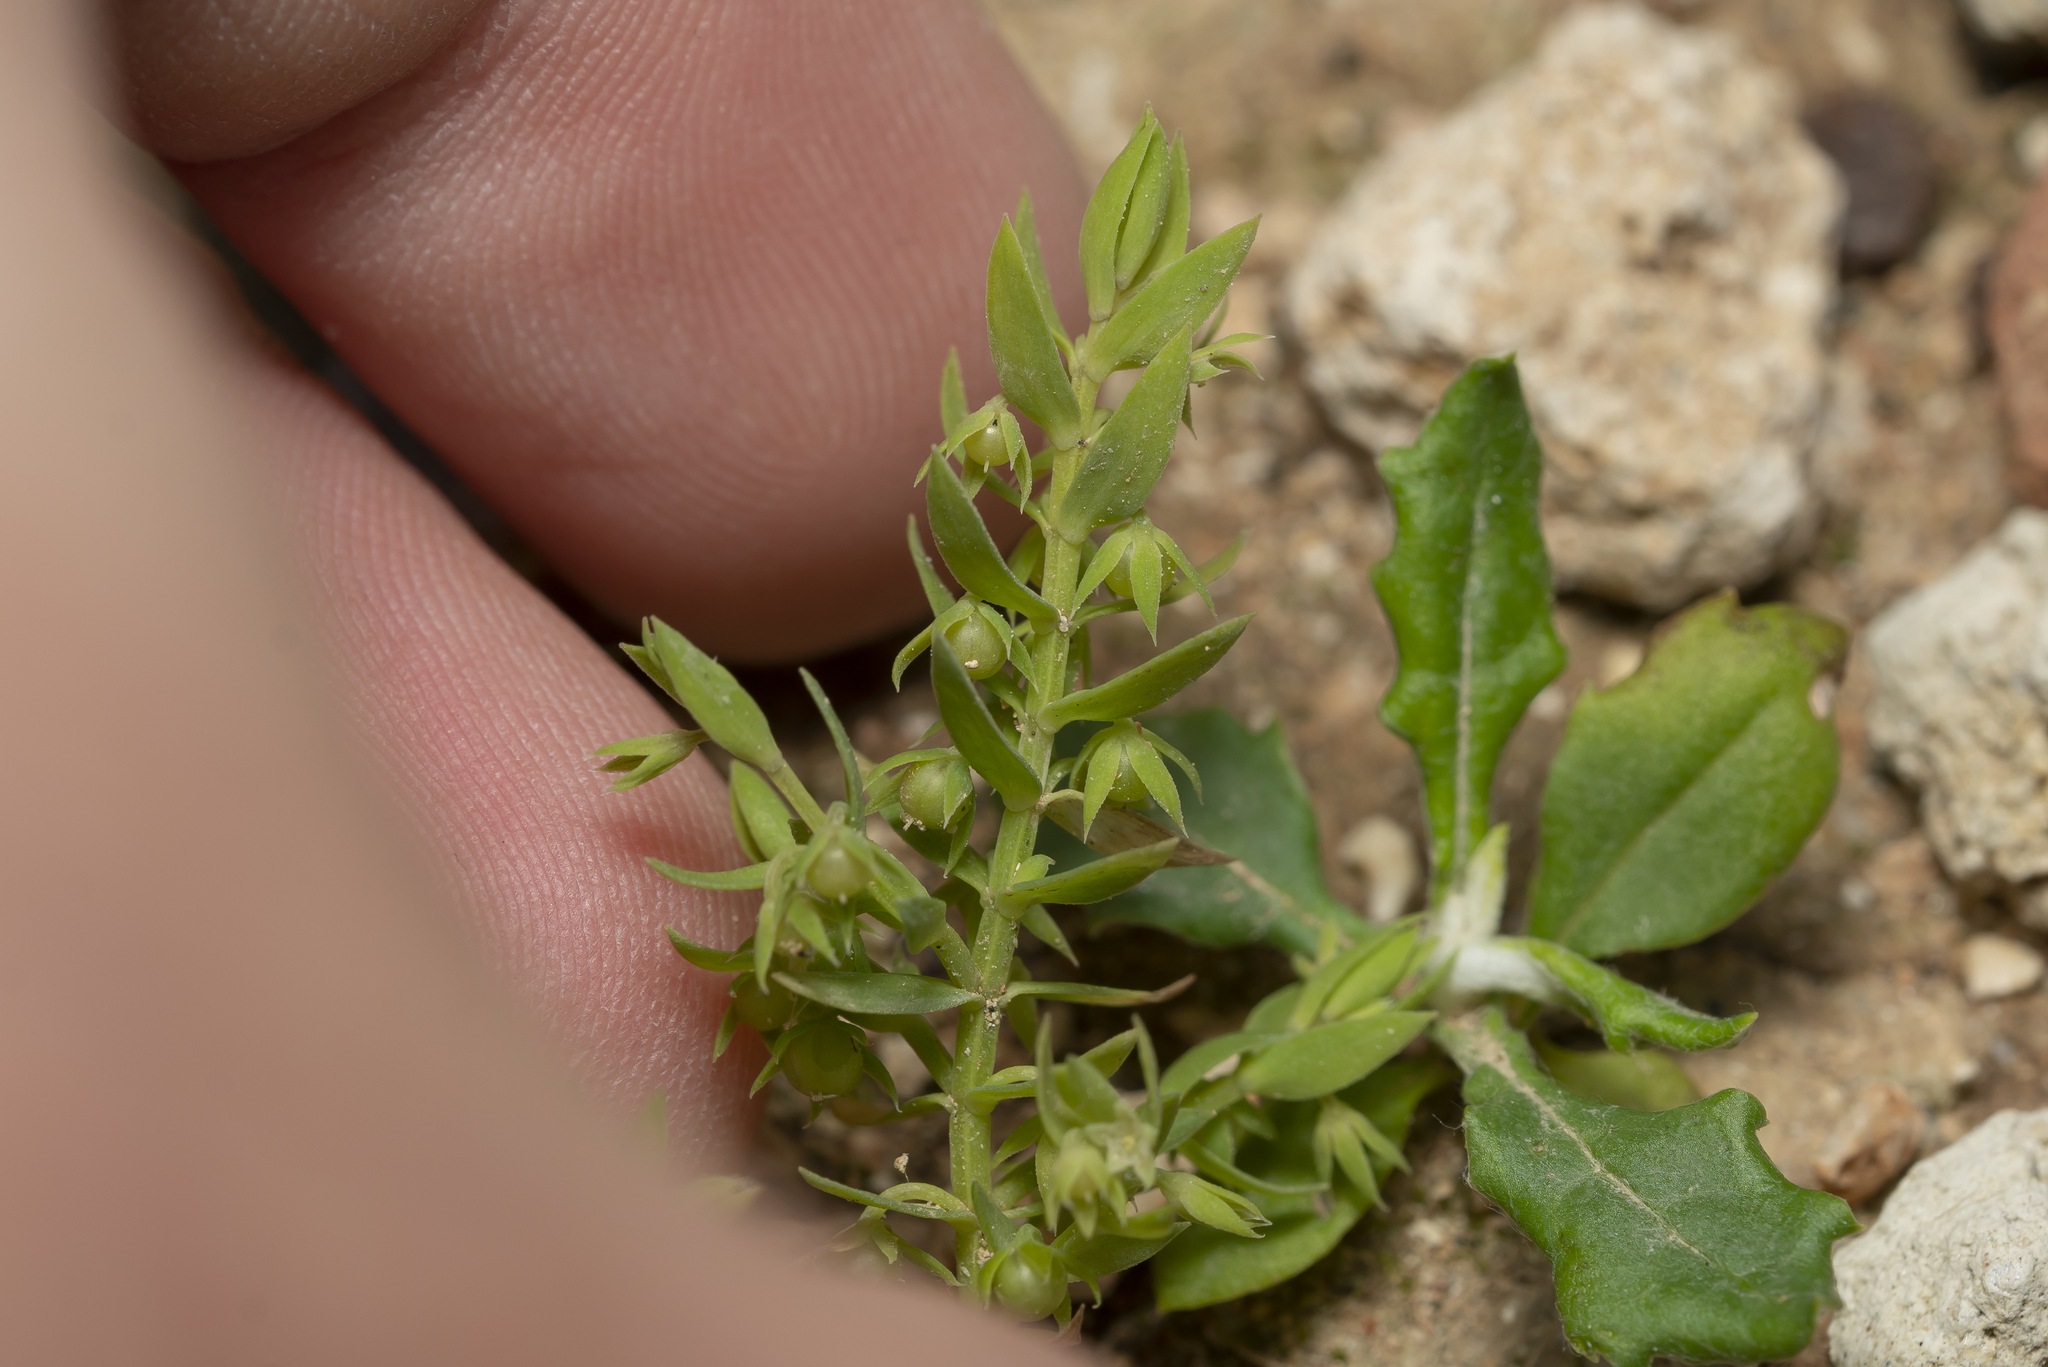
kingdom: Plantae
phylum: Tracheophyta
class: Magnoliopsida
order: Ericales
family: Primulaceae
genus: Lysimachia
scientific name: Lysimachia linum-stellatum
